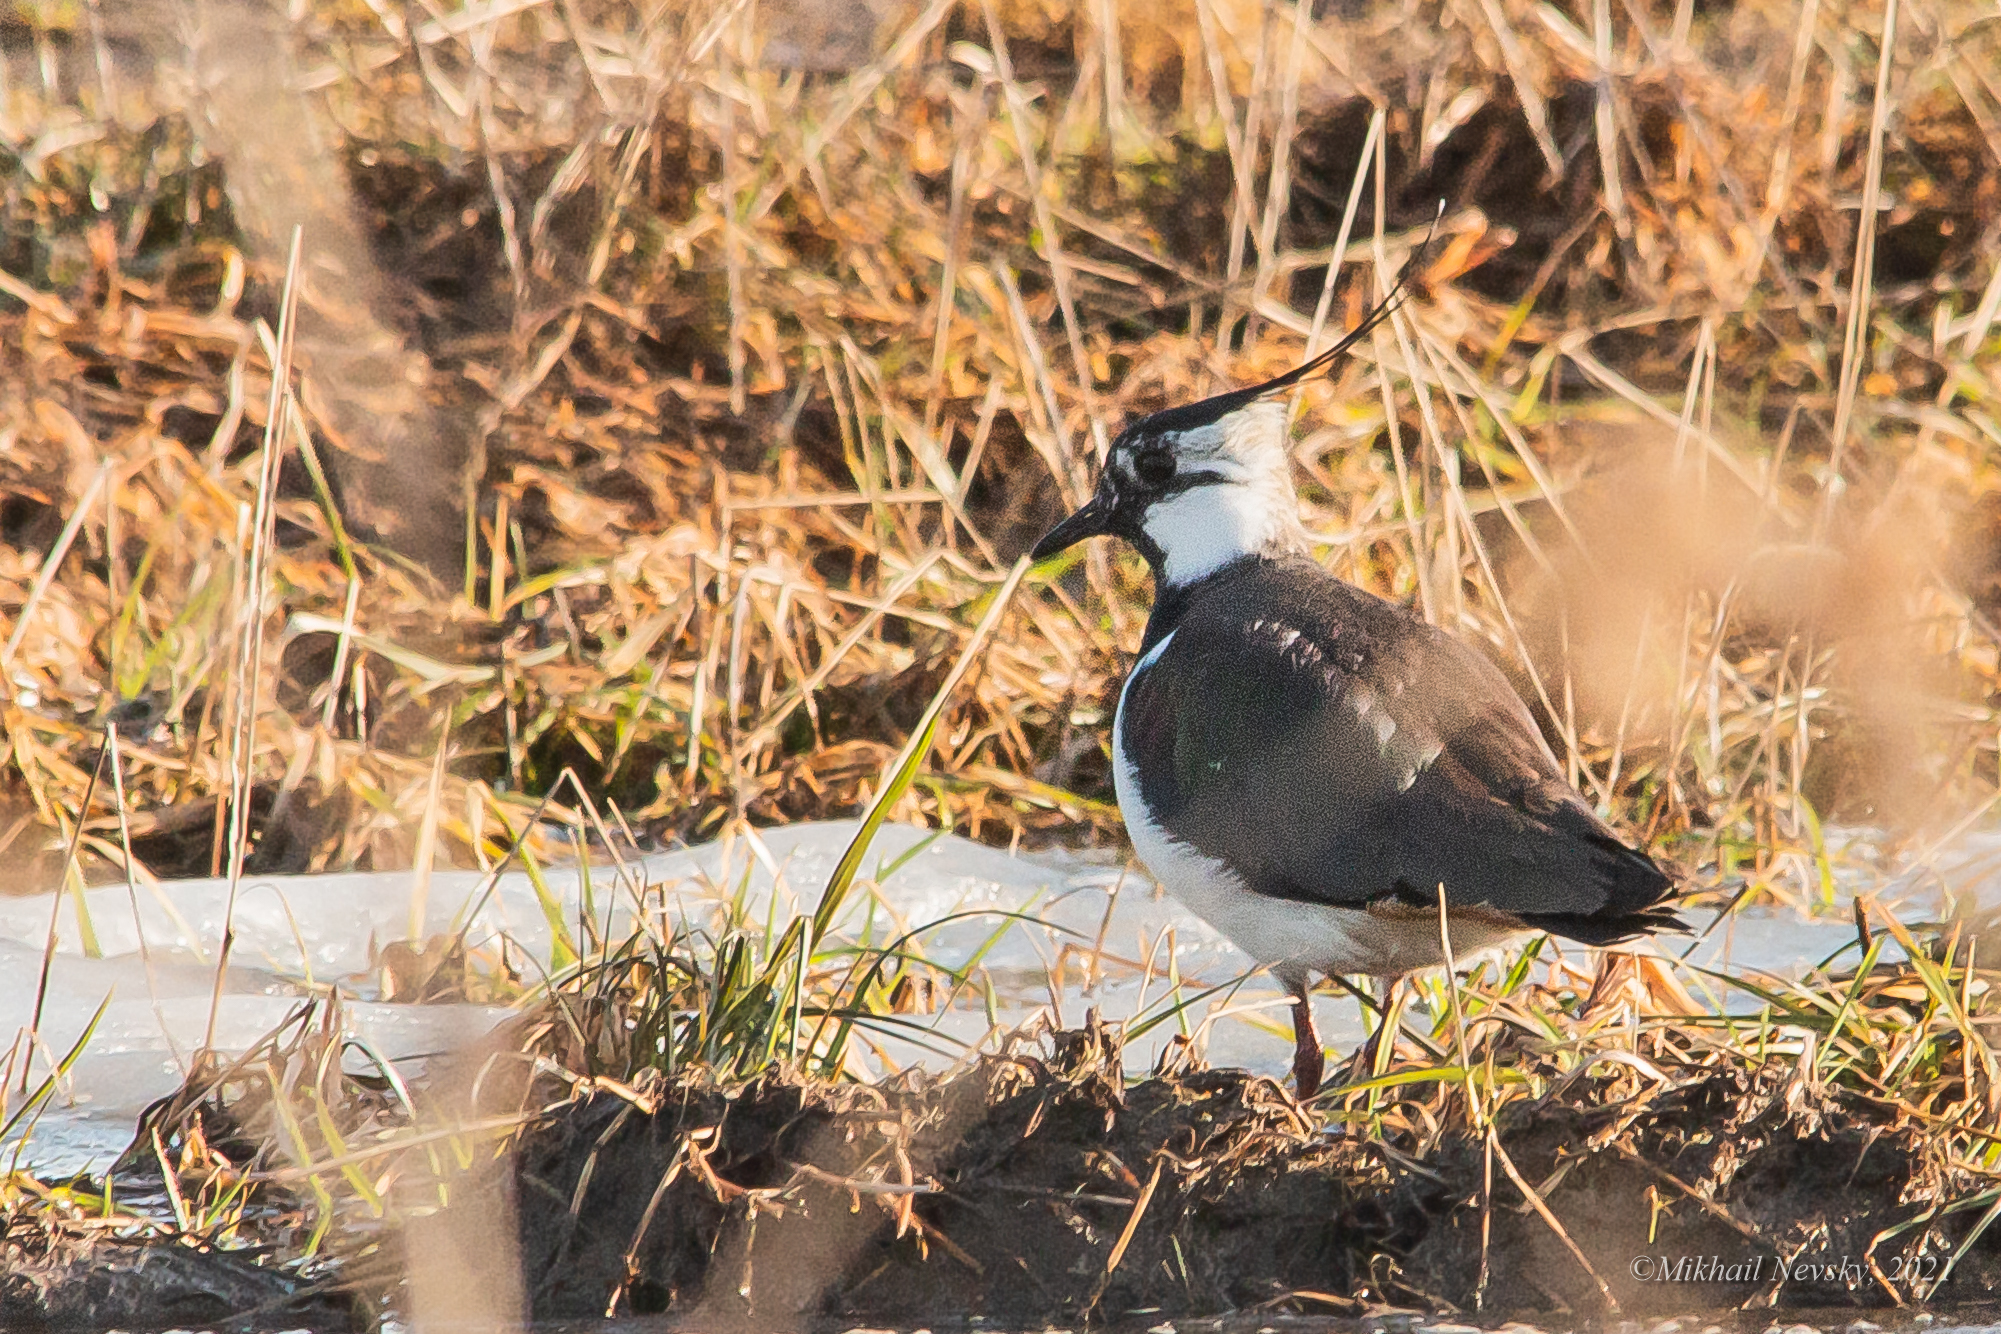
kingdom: Animalia
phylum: Chordata
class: Aves
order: Charadriiformes
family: Charadriidae
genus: Vanellus
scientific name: Vanellus vanellus
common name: Northern lapwing
